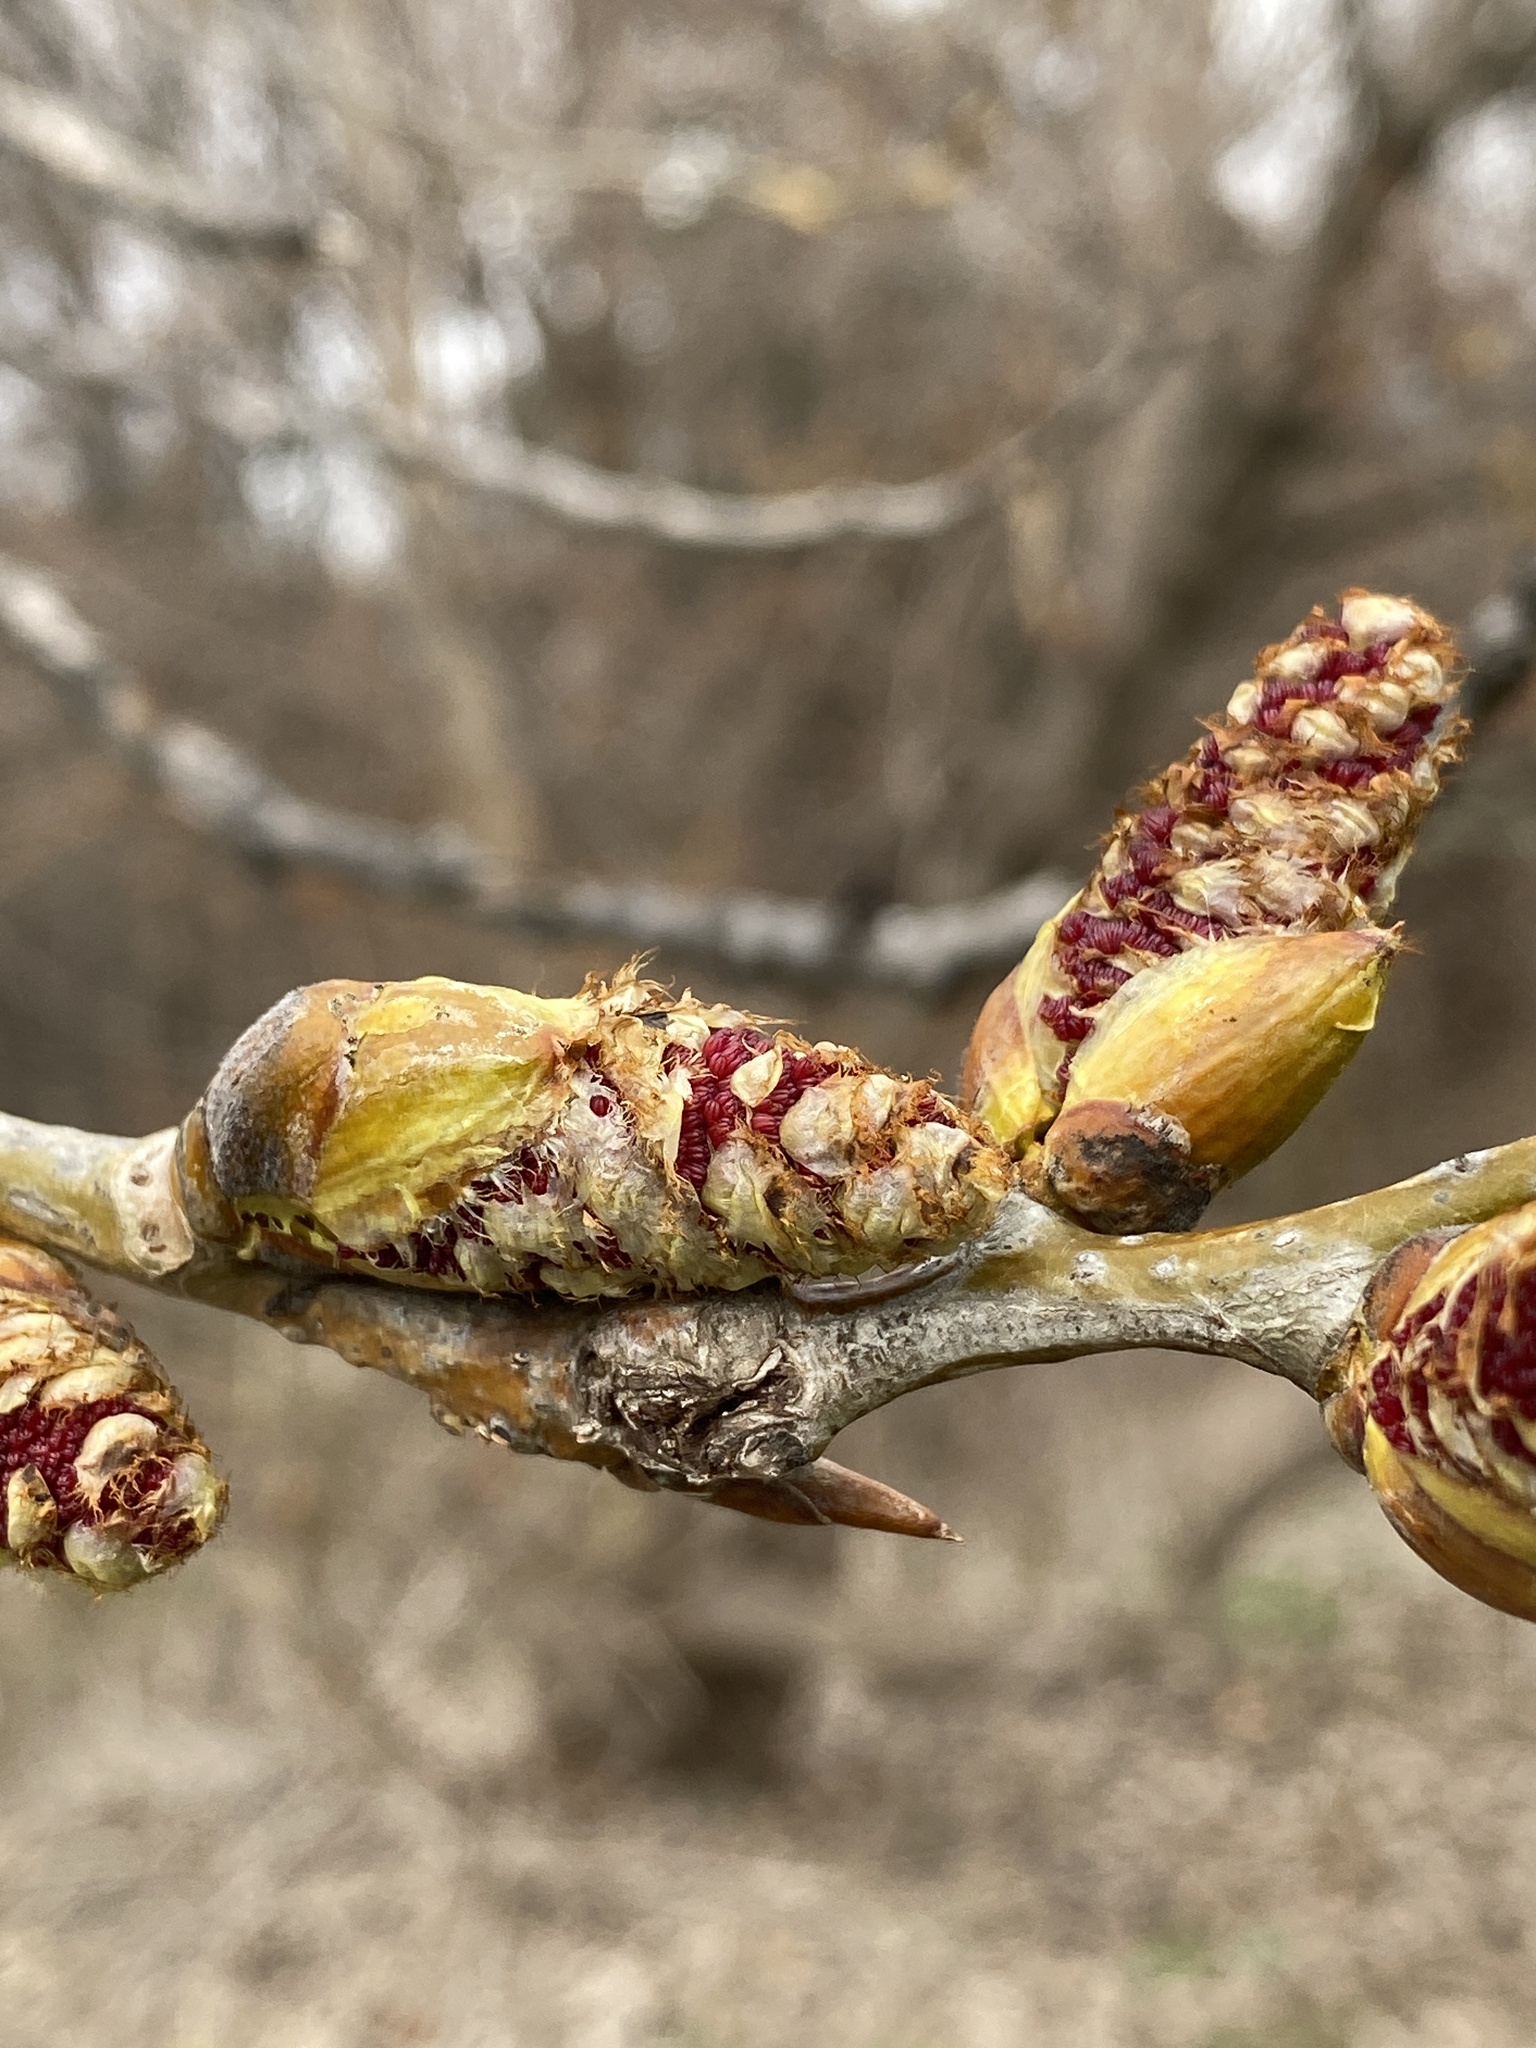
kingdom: Plantae
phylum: Tracheophyta
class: Magnoliopsida
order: Malpighiales
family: Salicaceae
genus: Populus
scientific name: Populus deltoides
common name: Eastern cottonwood
